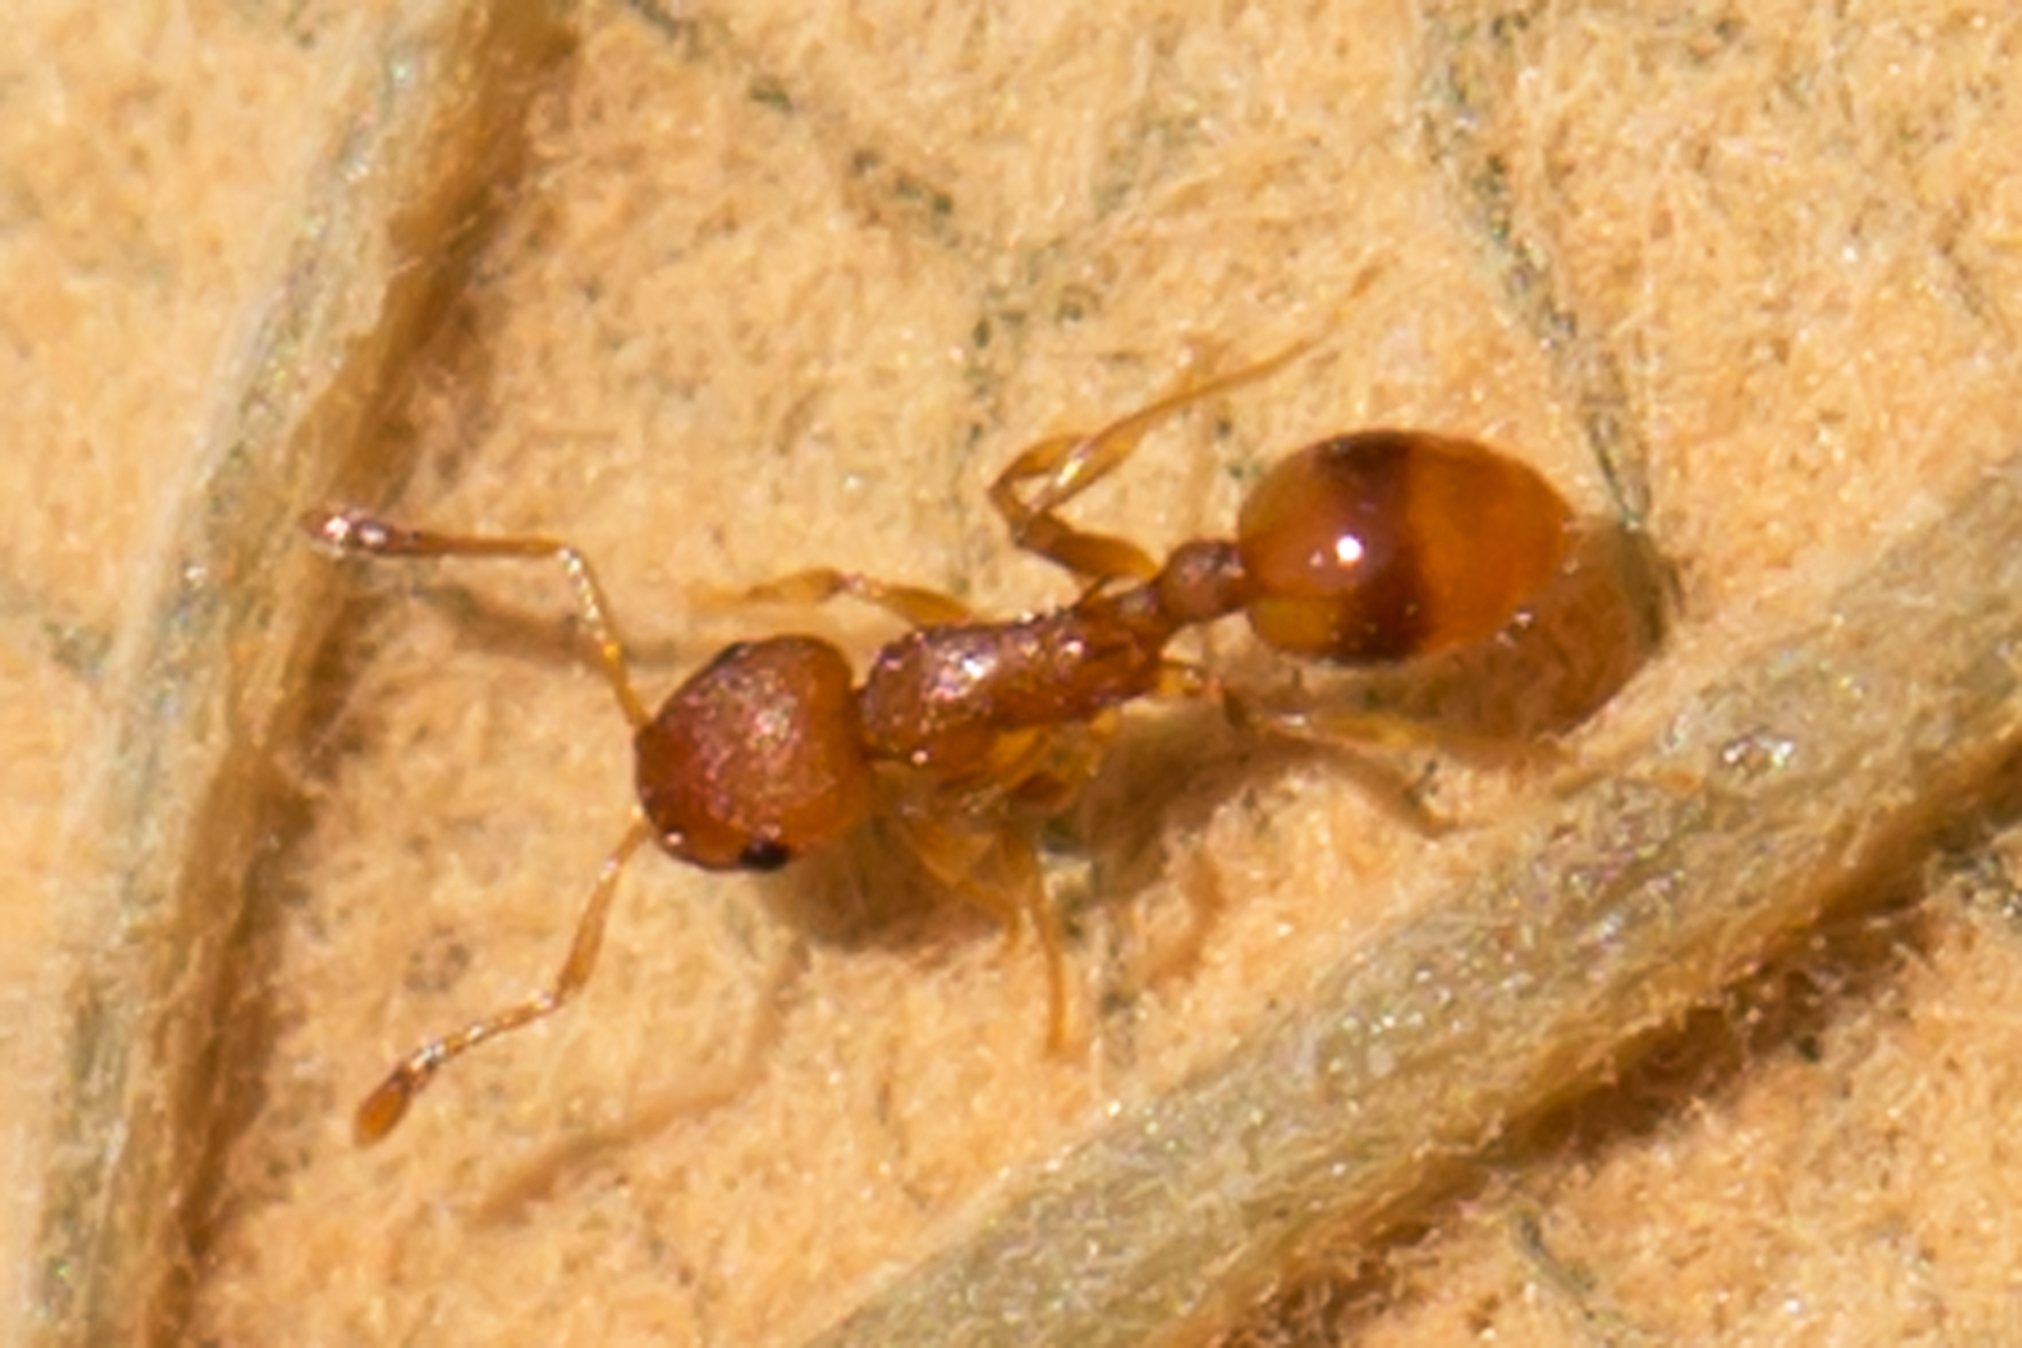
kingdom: Animalia
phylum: Arthropoda
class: Insecta
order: Hymenoptera
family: Formicidae
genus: Temnothorax
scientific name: Temnothorax curvispinosus
